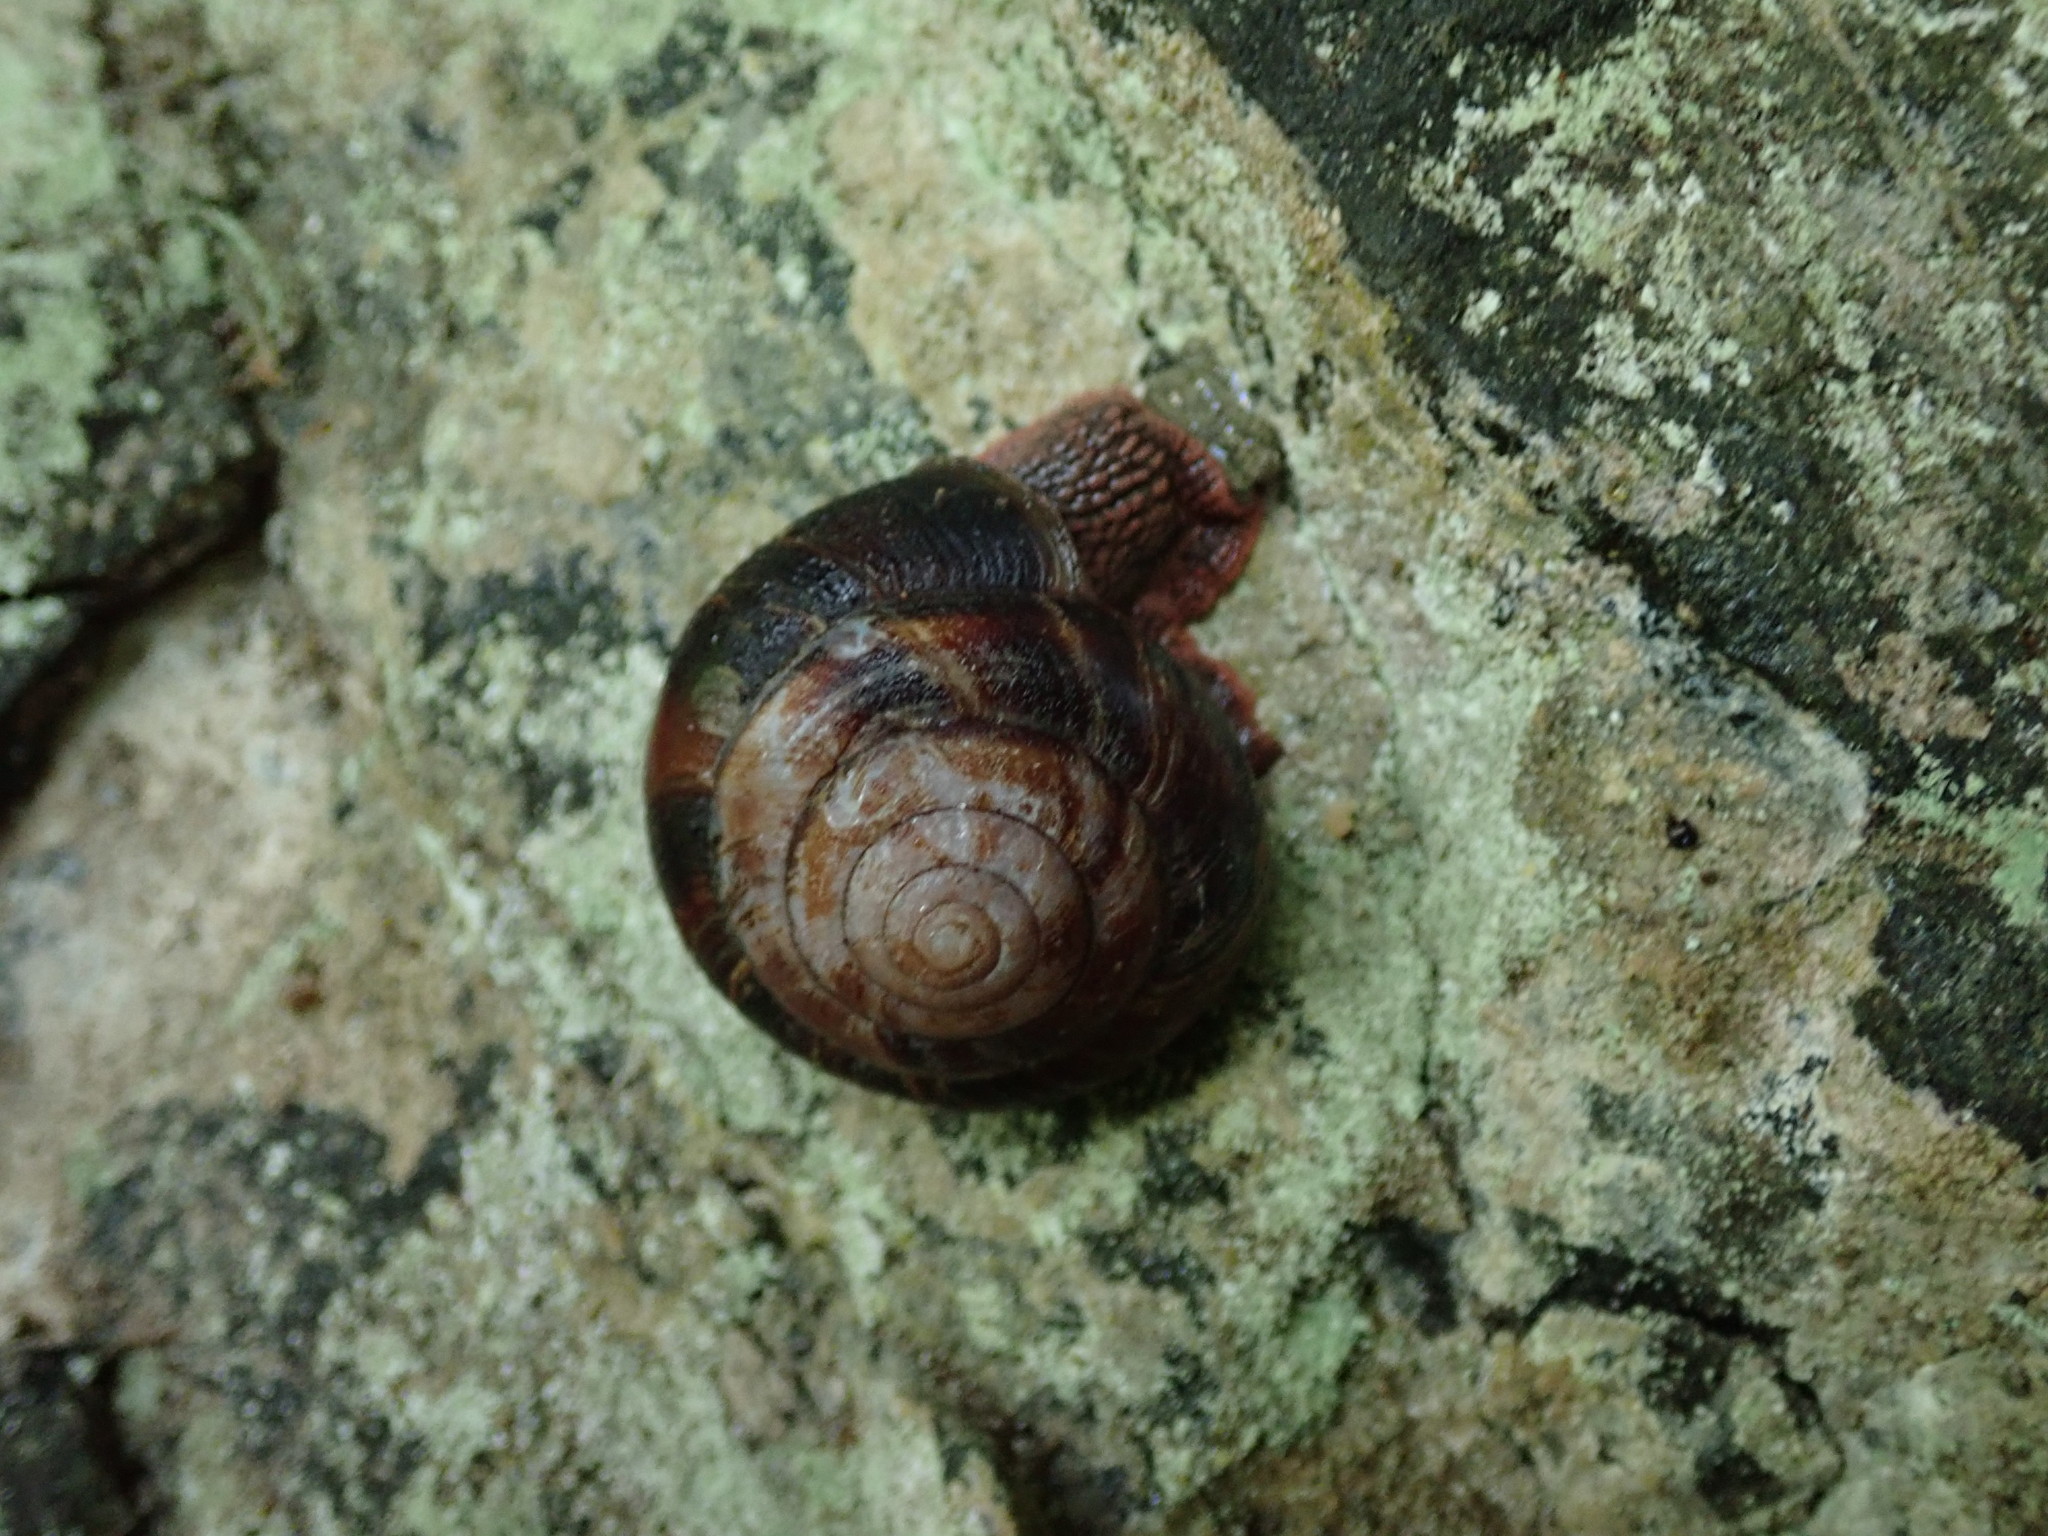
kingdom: Animalia
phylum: Mollusca
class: Gastropoda
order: Stylommatophora
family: Xanthonychidae
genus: Monadenia
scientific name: Monadenia fidelis
